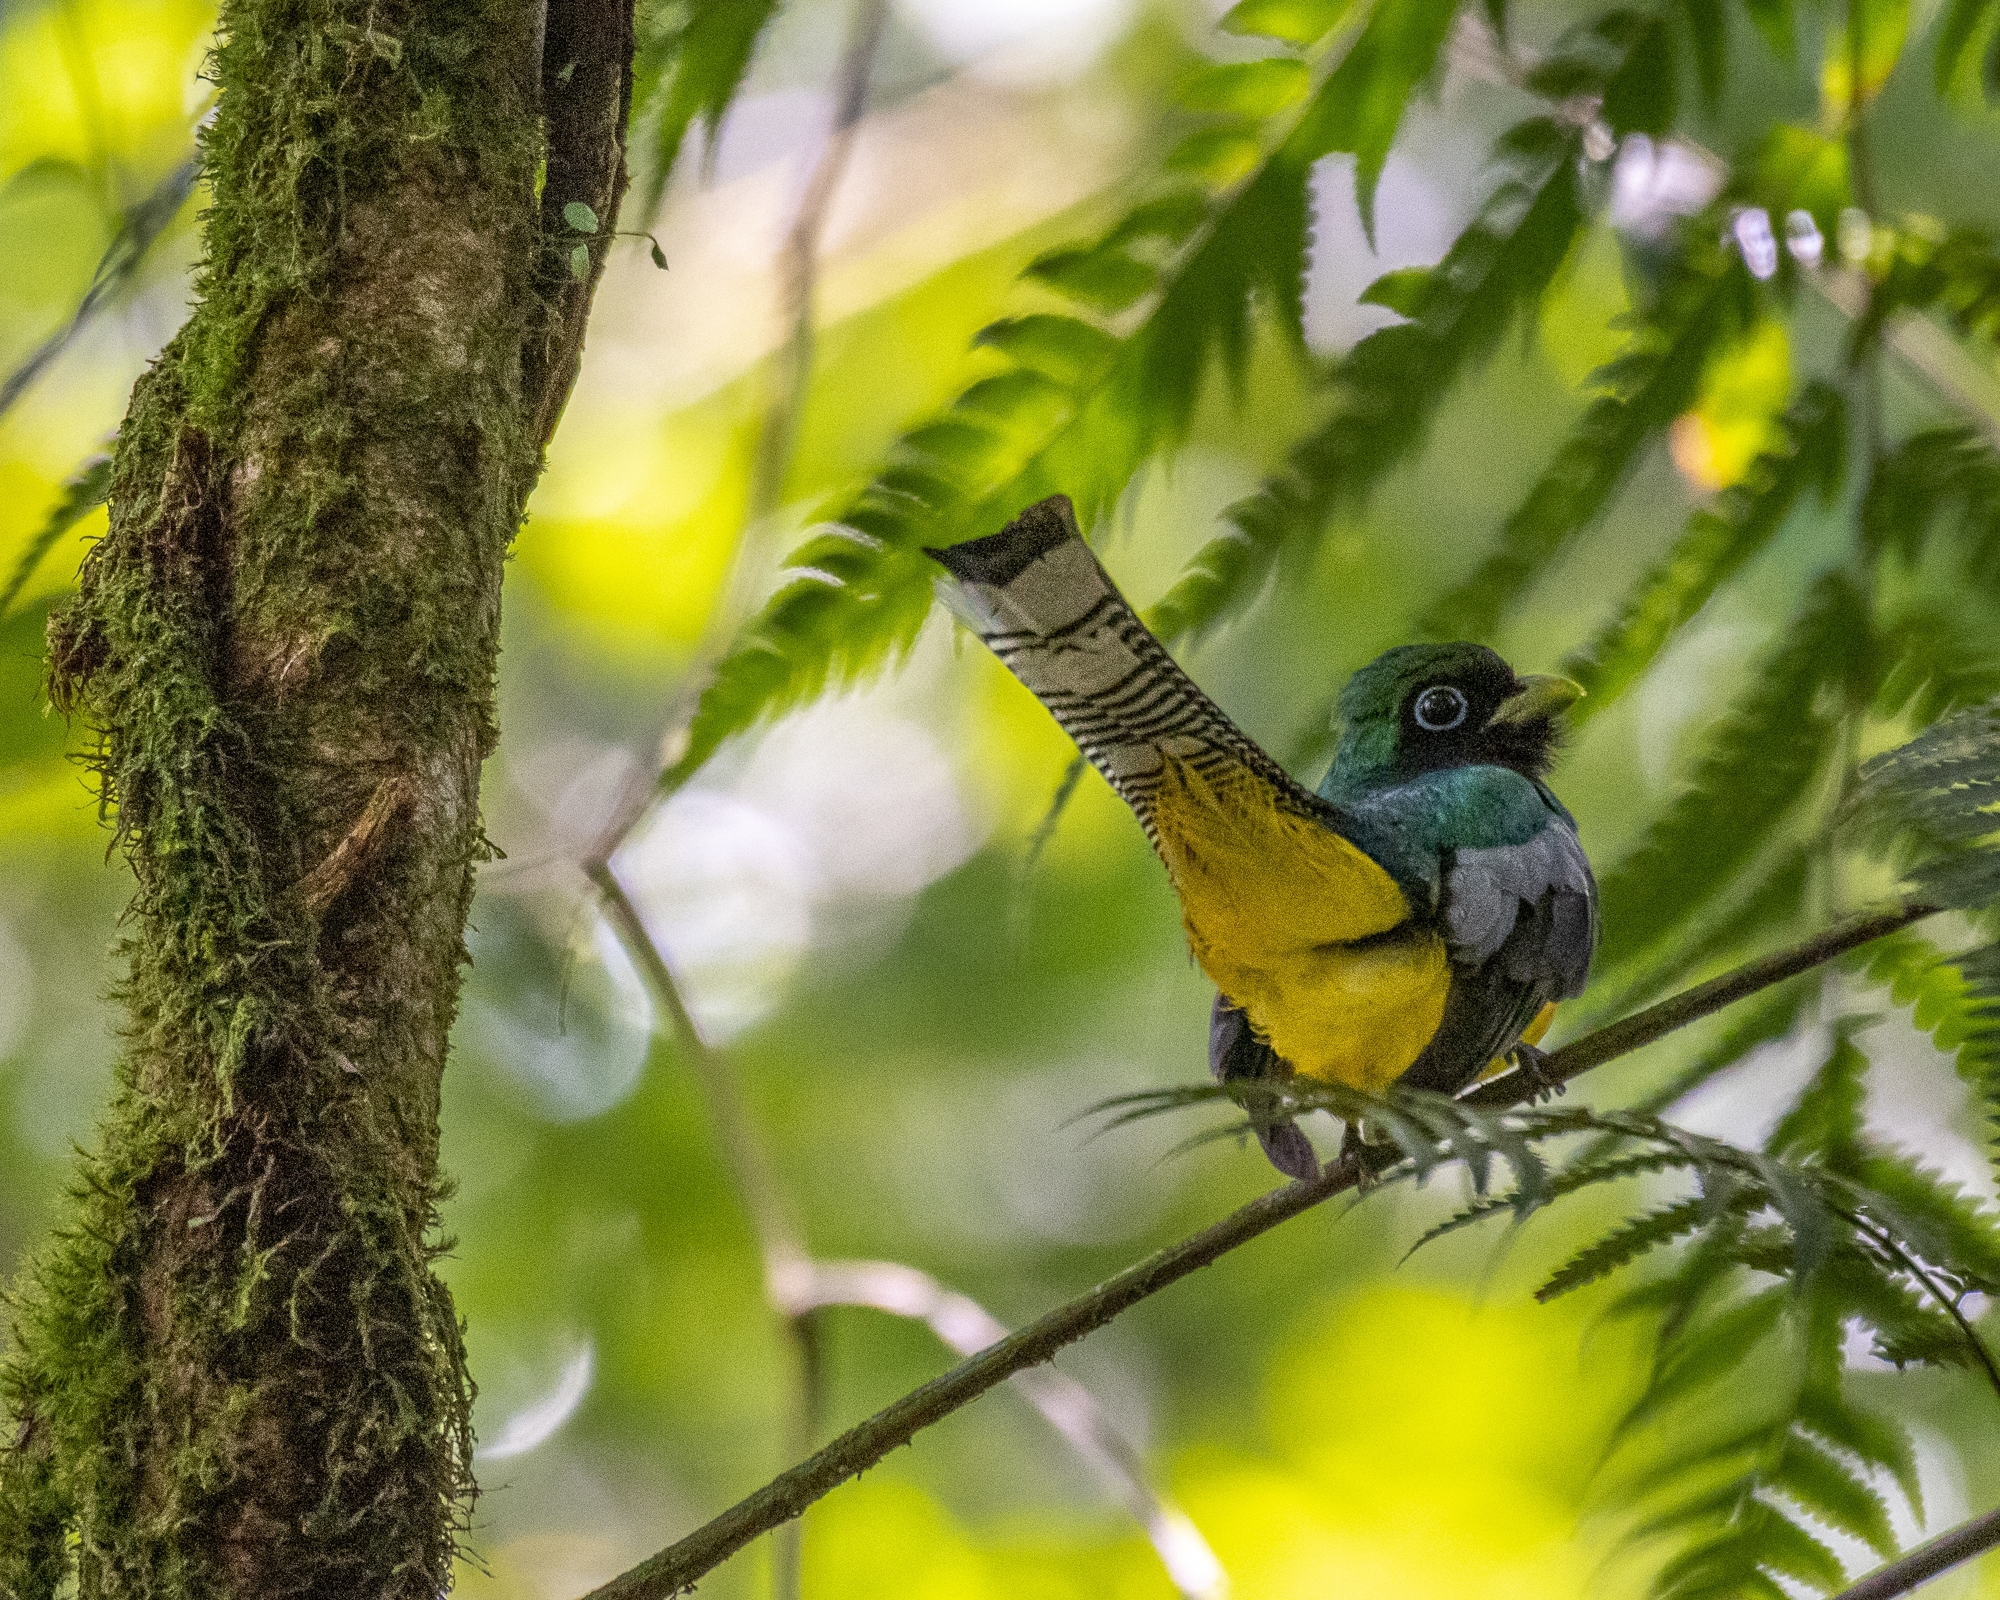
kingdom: Animalia
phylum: Chordata
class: Aves
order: Trogoniformes
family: Trogonidae
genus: Trogon
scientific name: Trogon rufus
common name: Black-throated trogon
